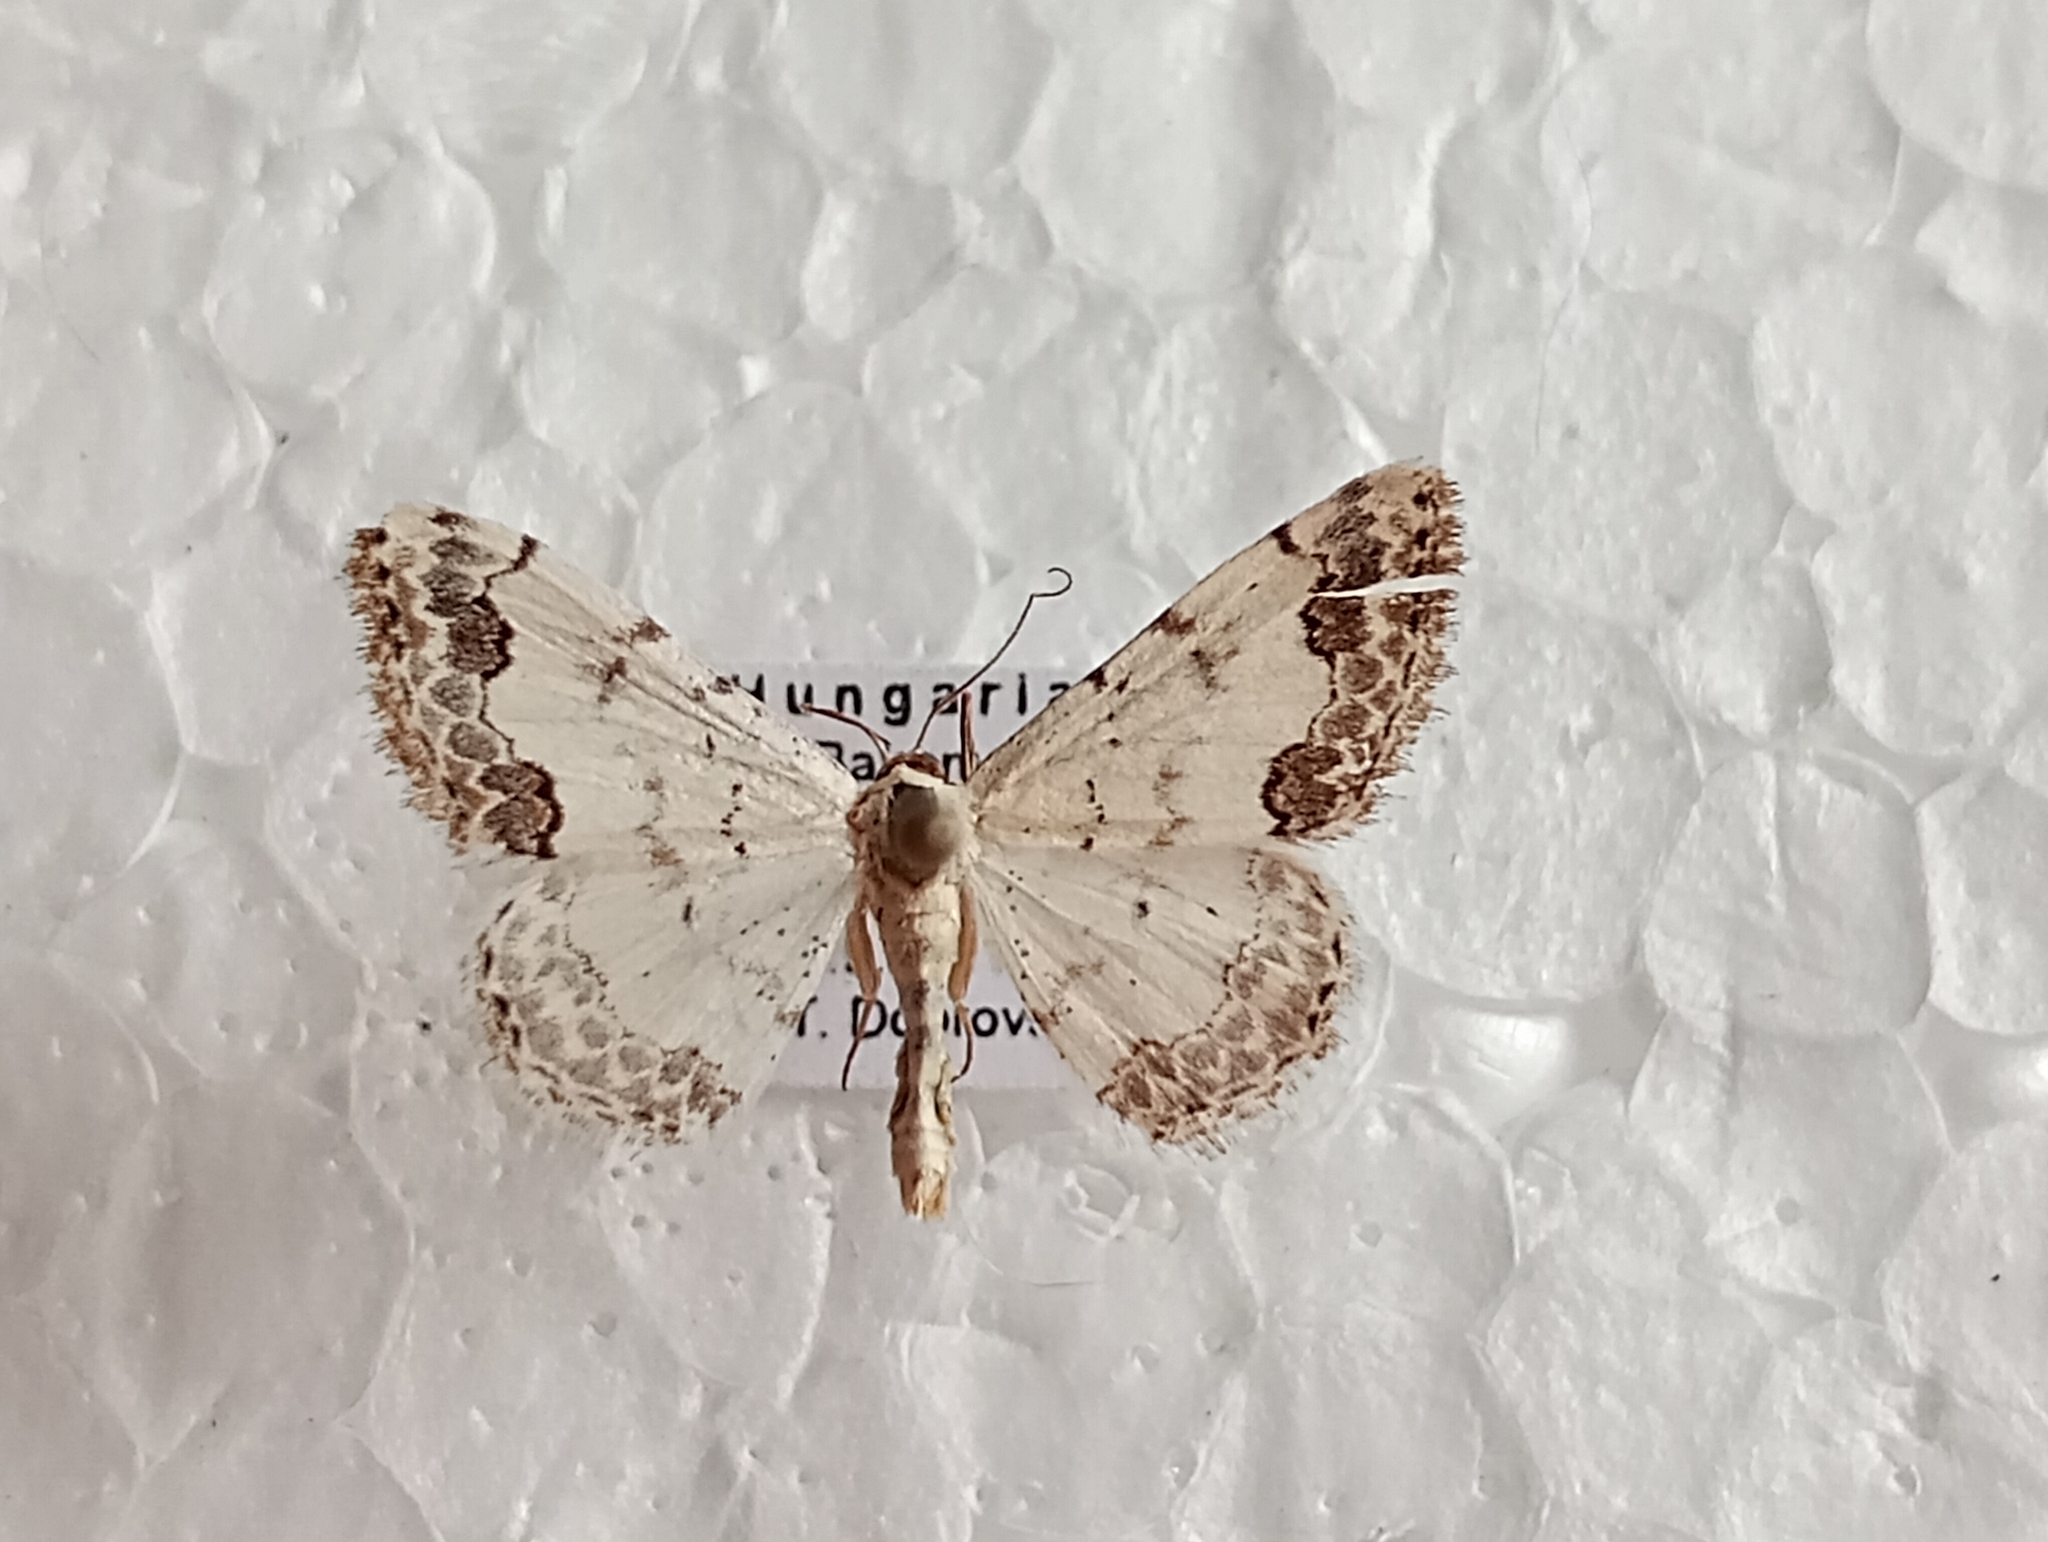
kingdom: Animalia
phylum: Arthropoda
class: Insecta
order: Lepidoptera
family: Geometridae
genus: Scopula
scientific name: Scopula decorata
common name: Middle lace border
